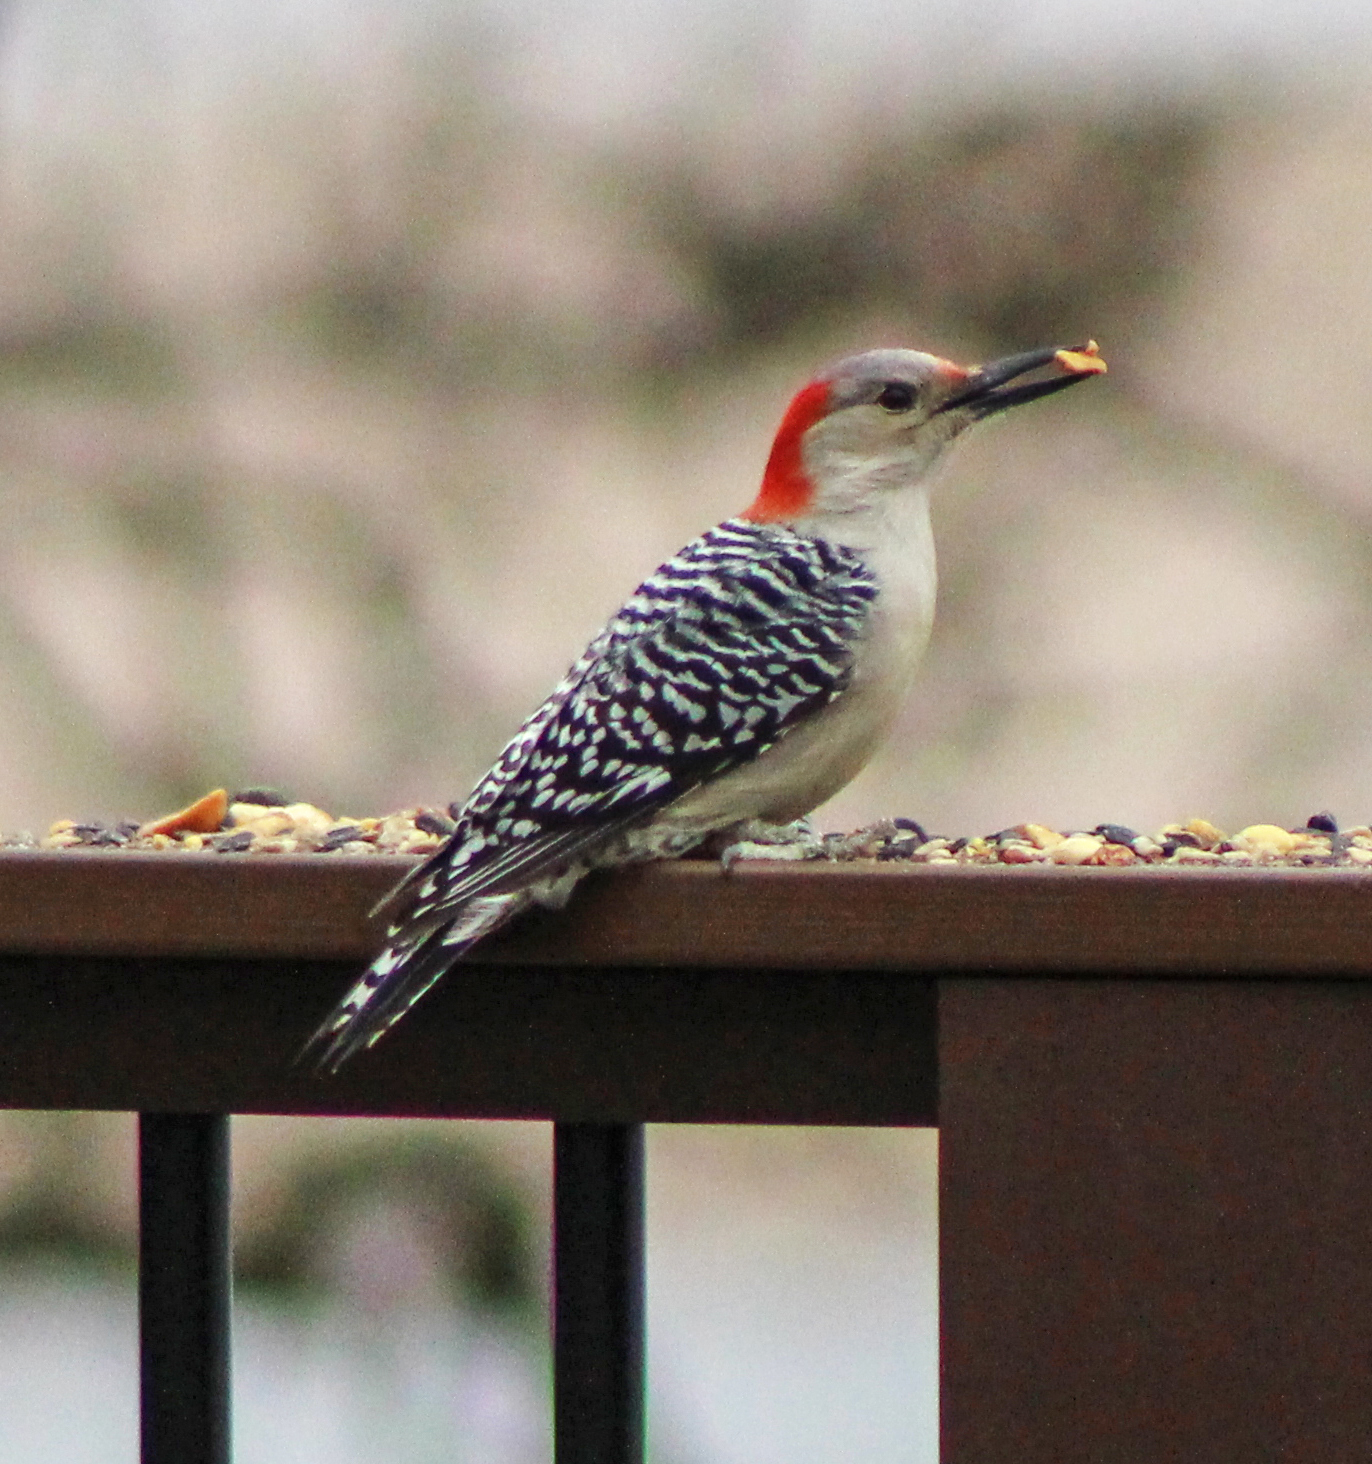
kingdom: Animalia
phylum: Chordata
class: Aves
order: Piciformes
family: Picidae
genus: Melanerpes
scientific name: Melanerpes carolinus
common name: Red-bellied woodpecker
